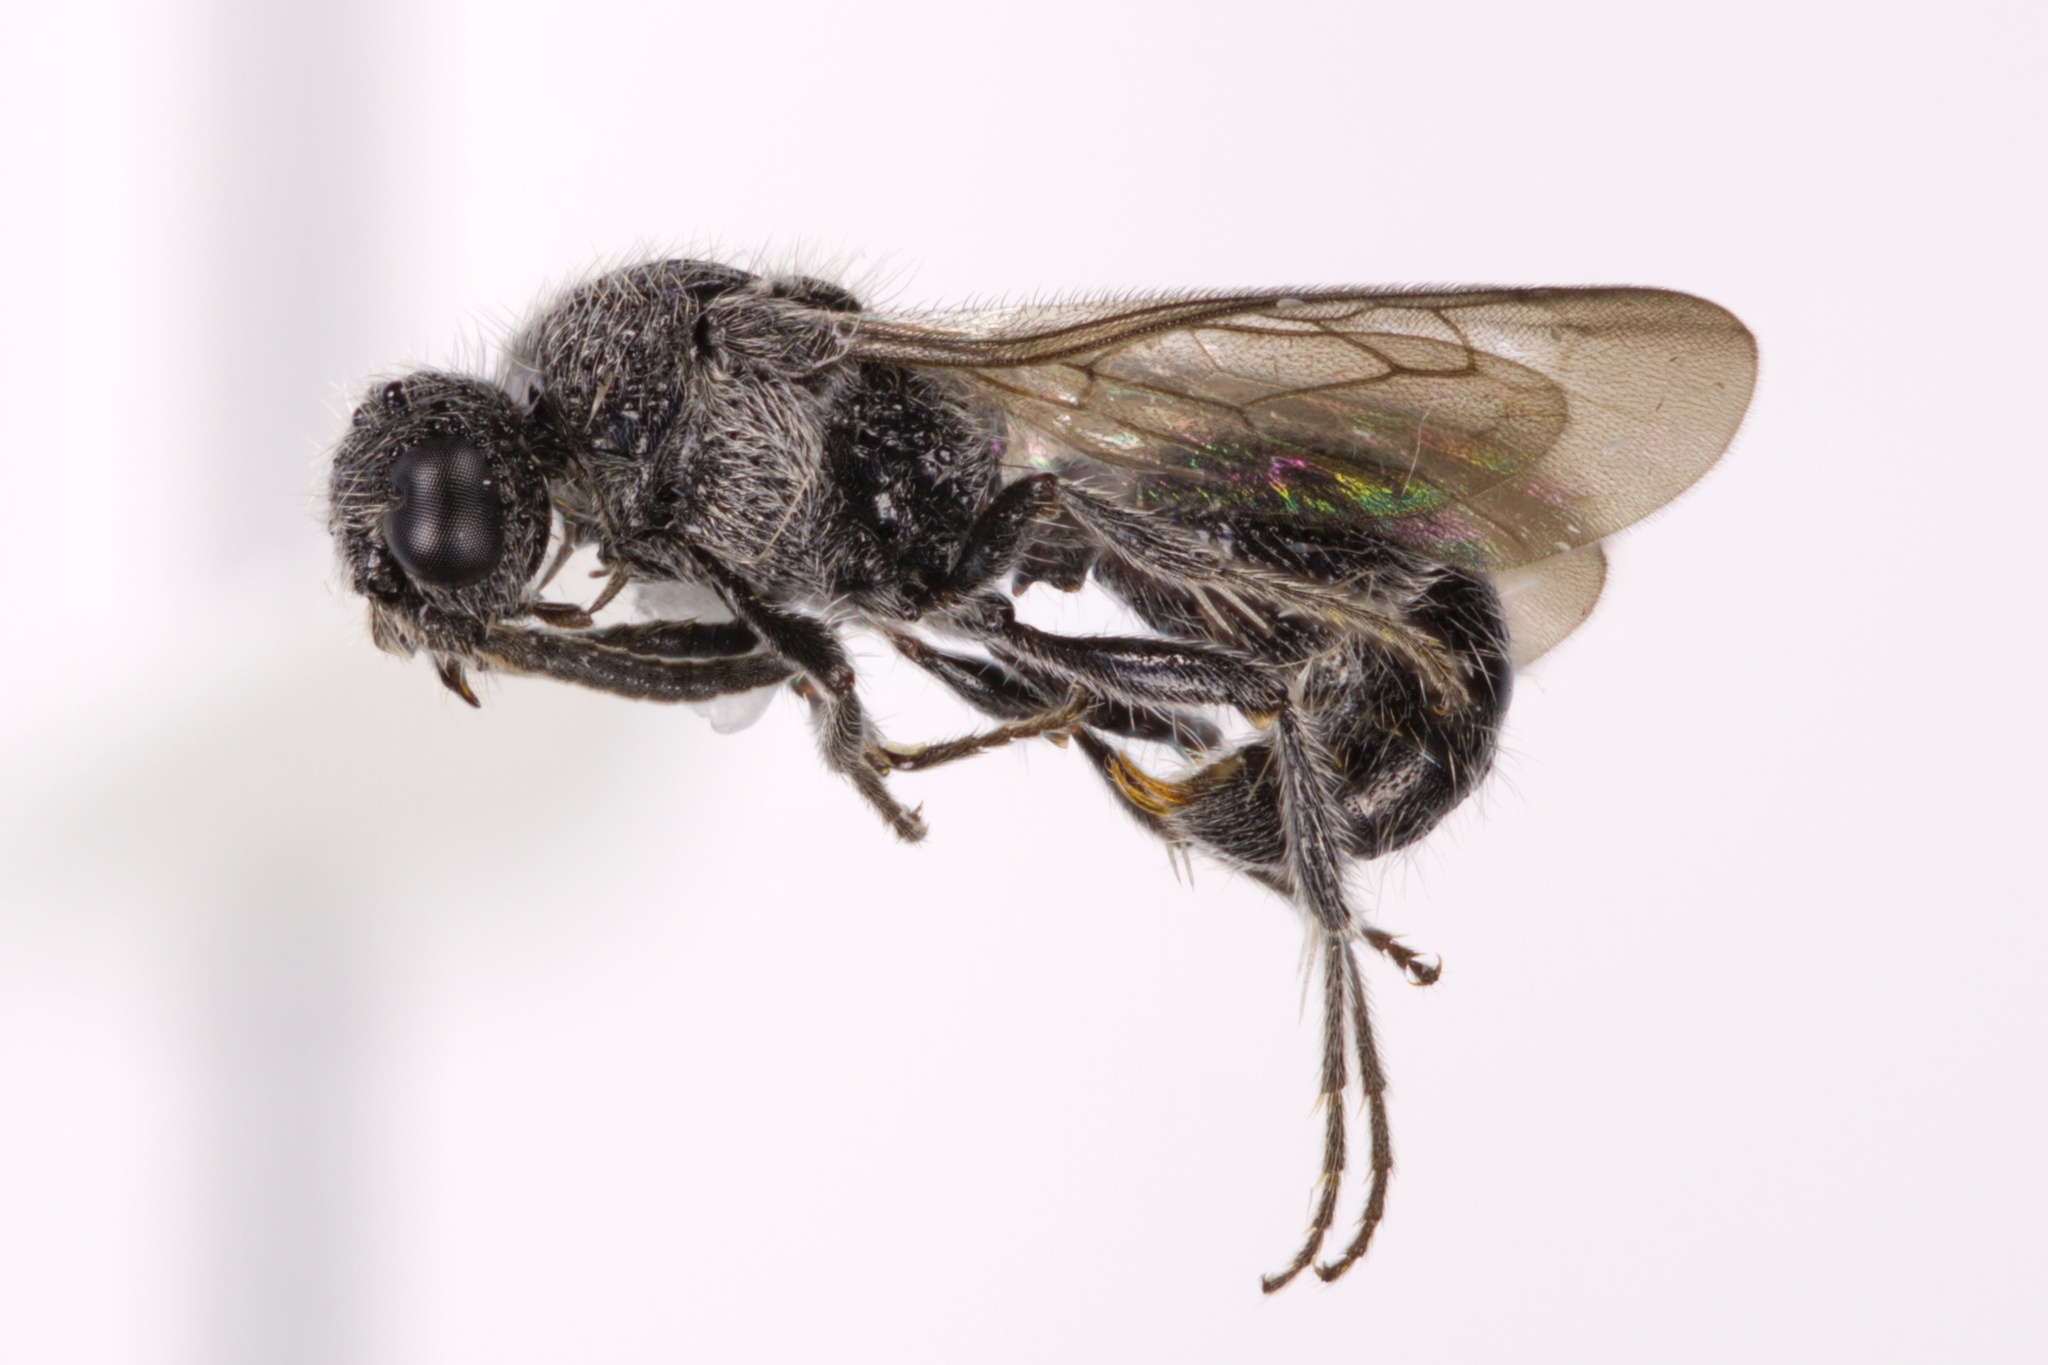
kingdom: Animalia
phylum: Arthropoda
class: Insecta
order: Hymenoptera
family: Mutillidae
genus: Ephuta
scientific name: Ephuta
